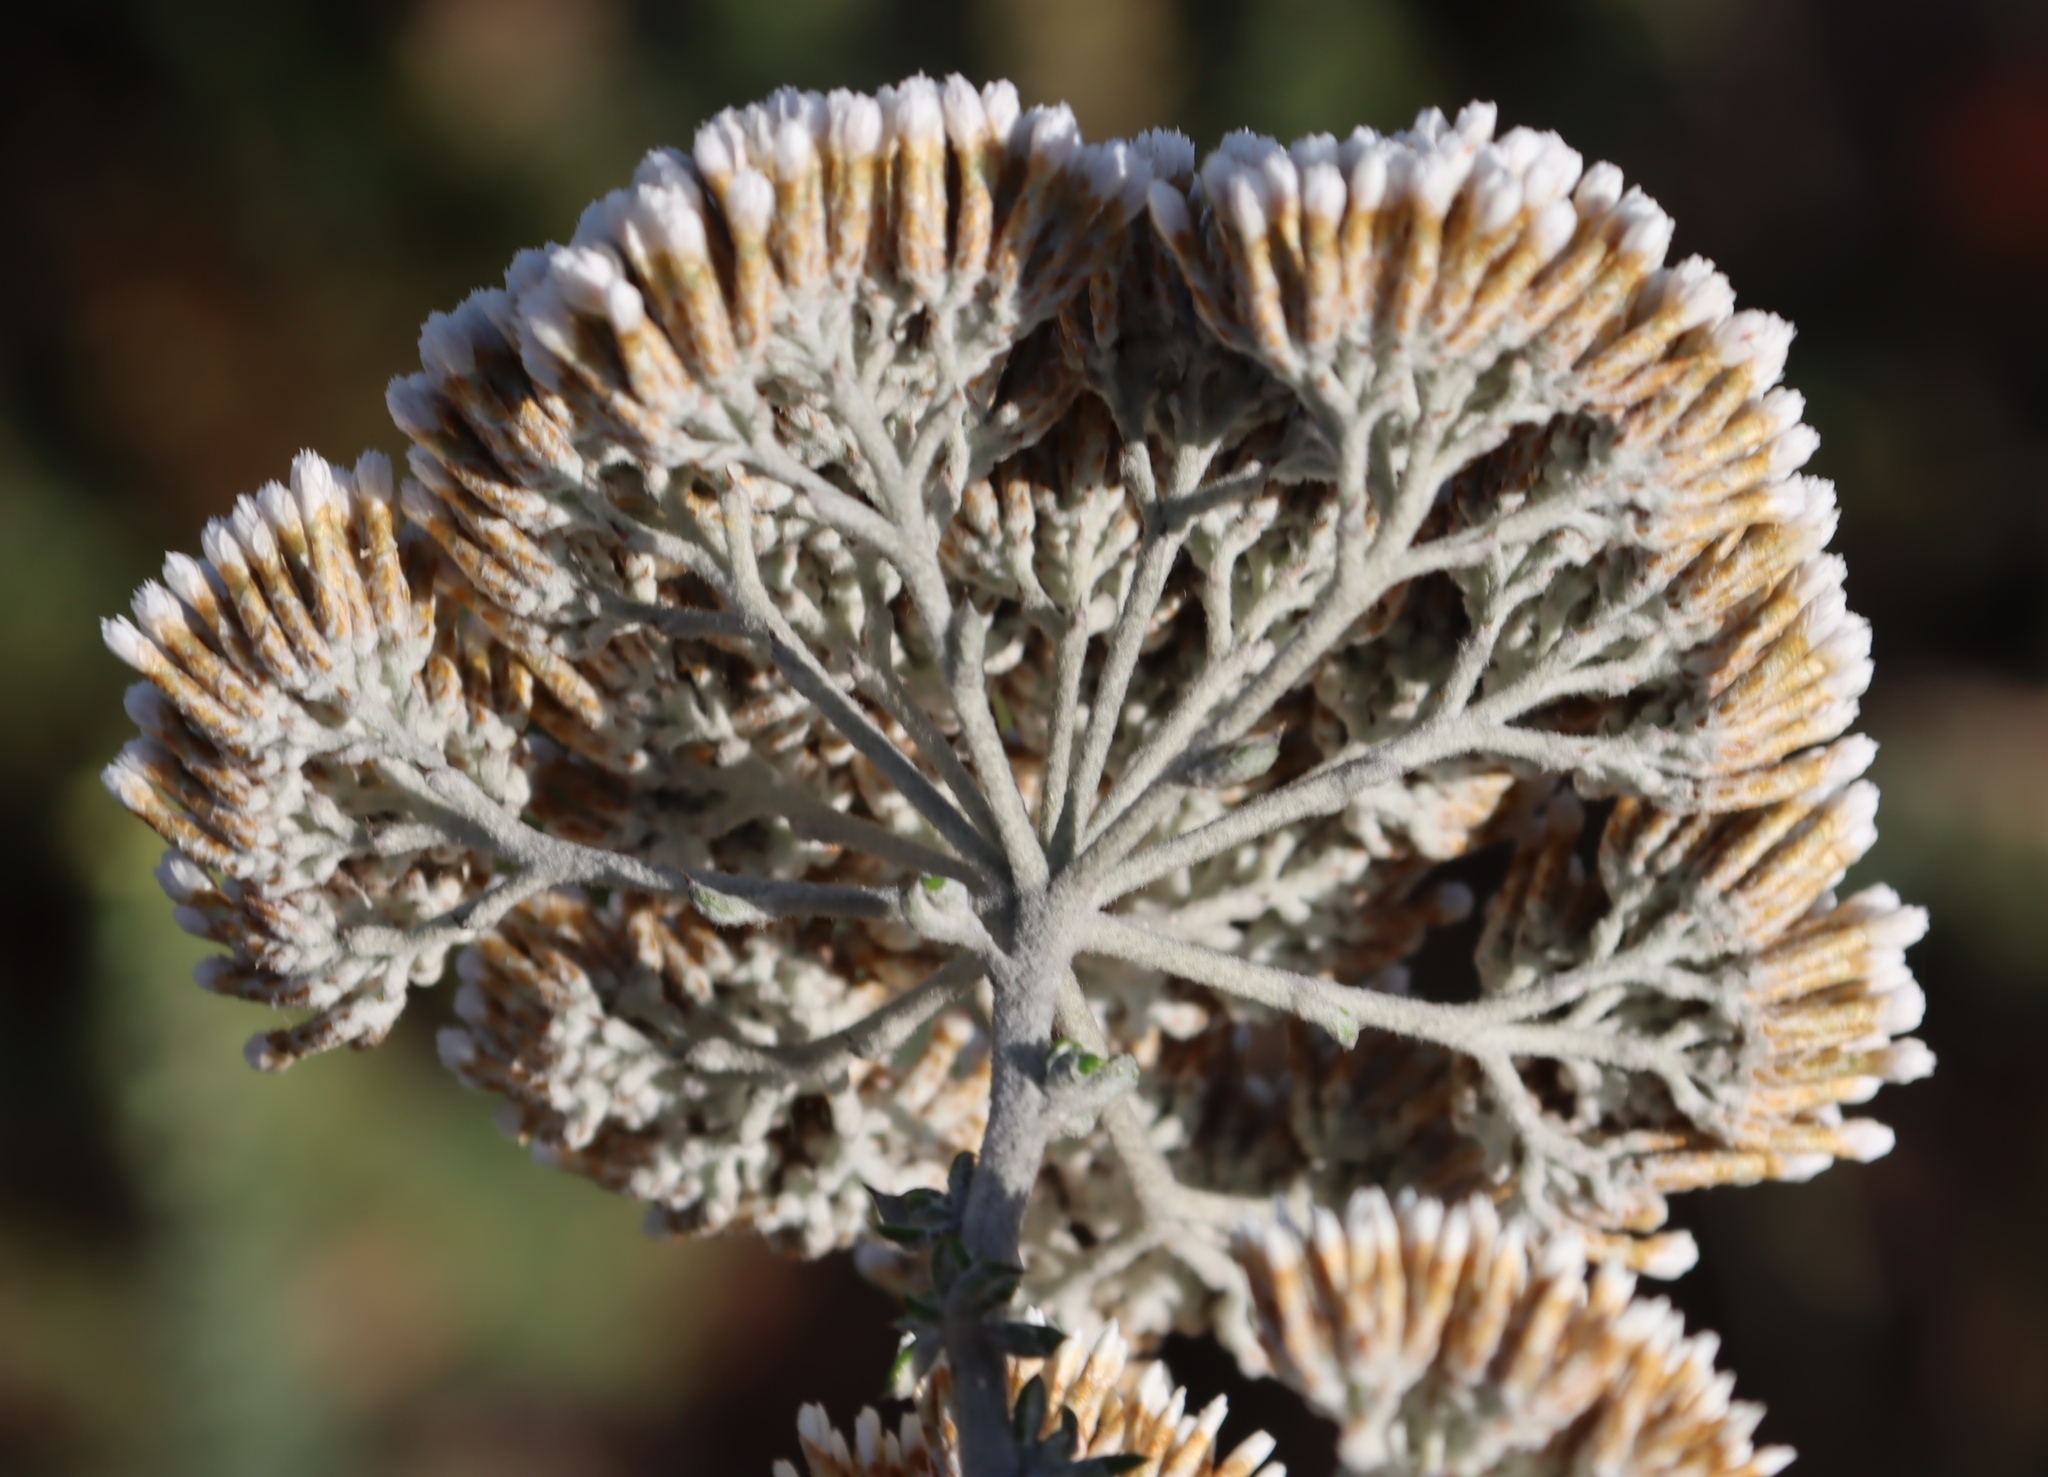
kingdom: Plantae
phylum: Tracheophyta
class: Magnoliopsida
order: Asterales
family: Asteraceae
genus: Metalasia
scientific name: Metalasia densa
